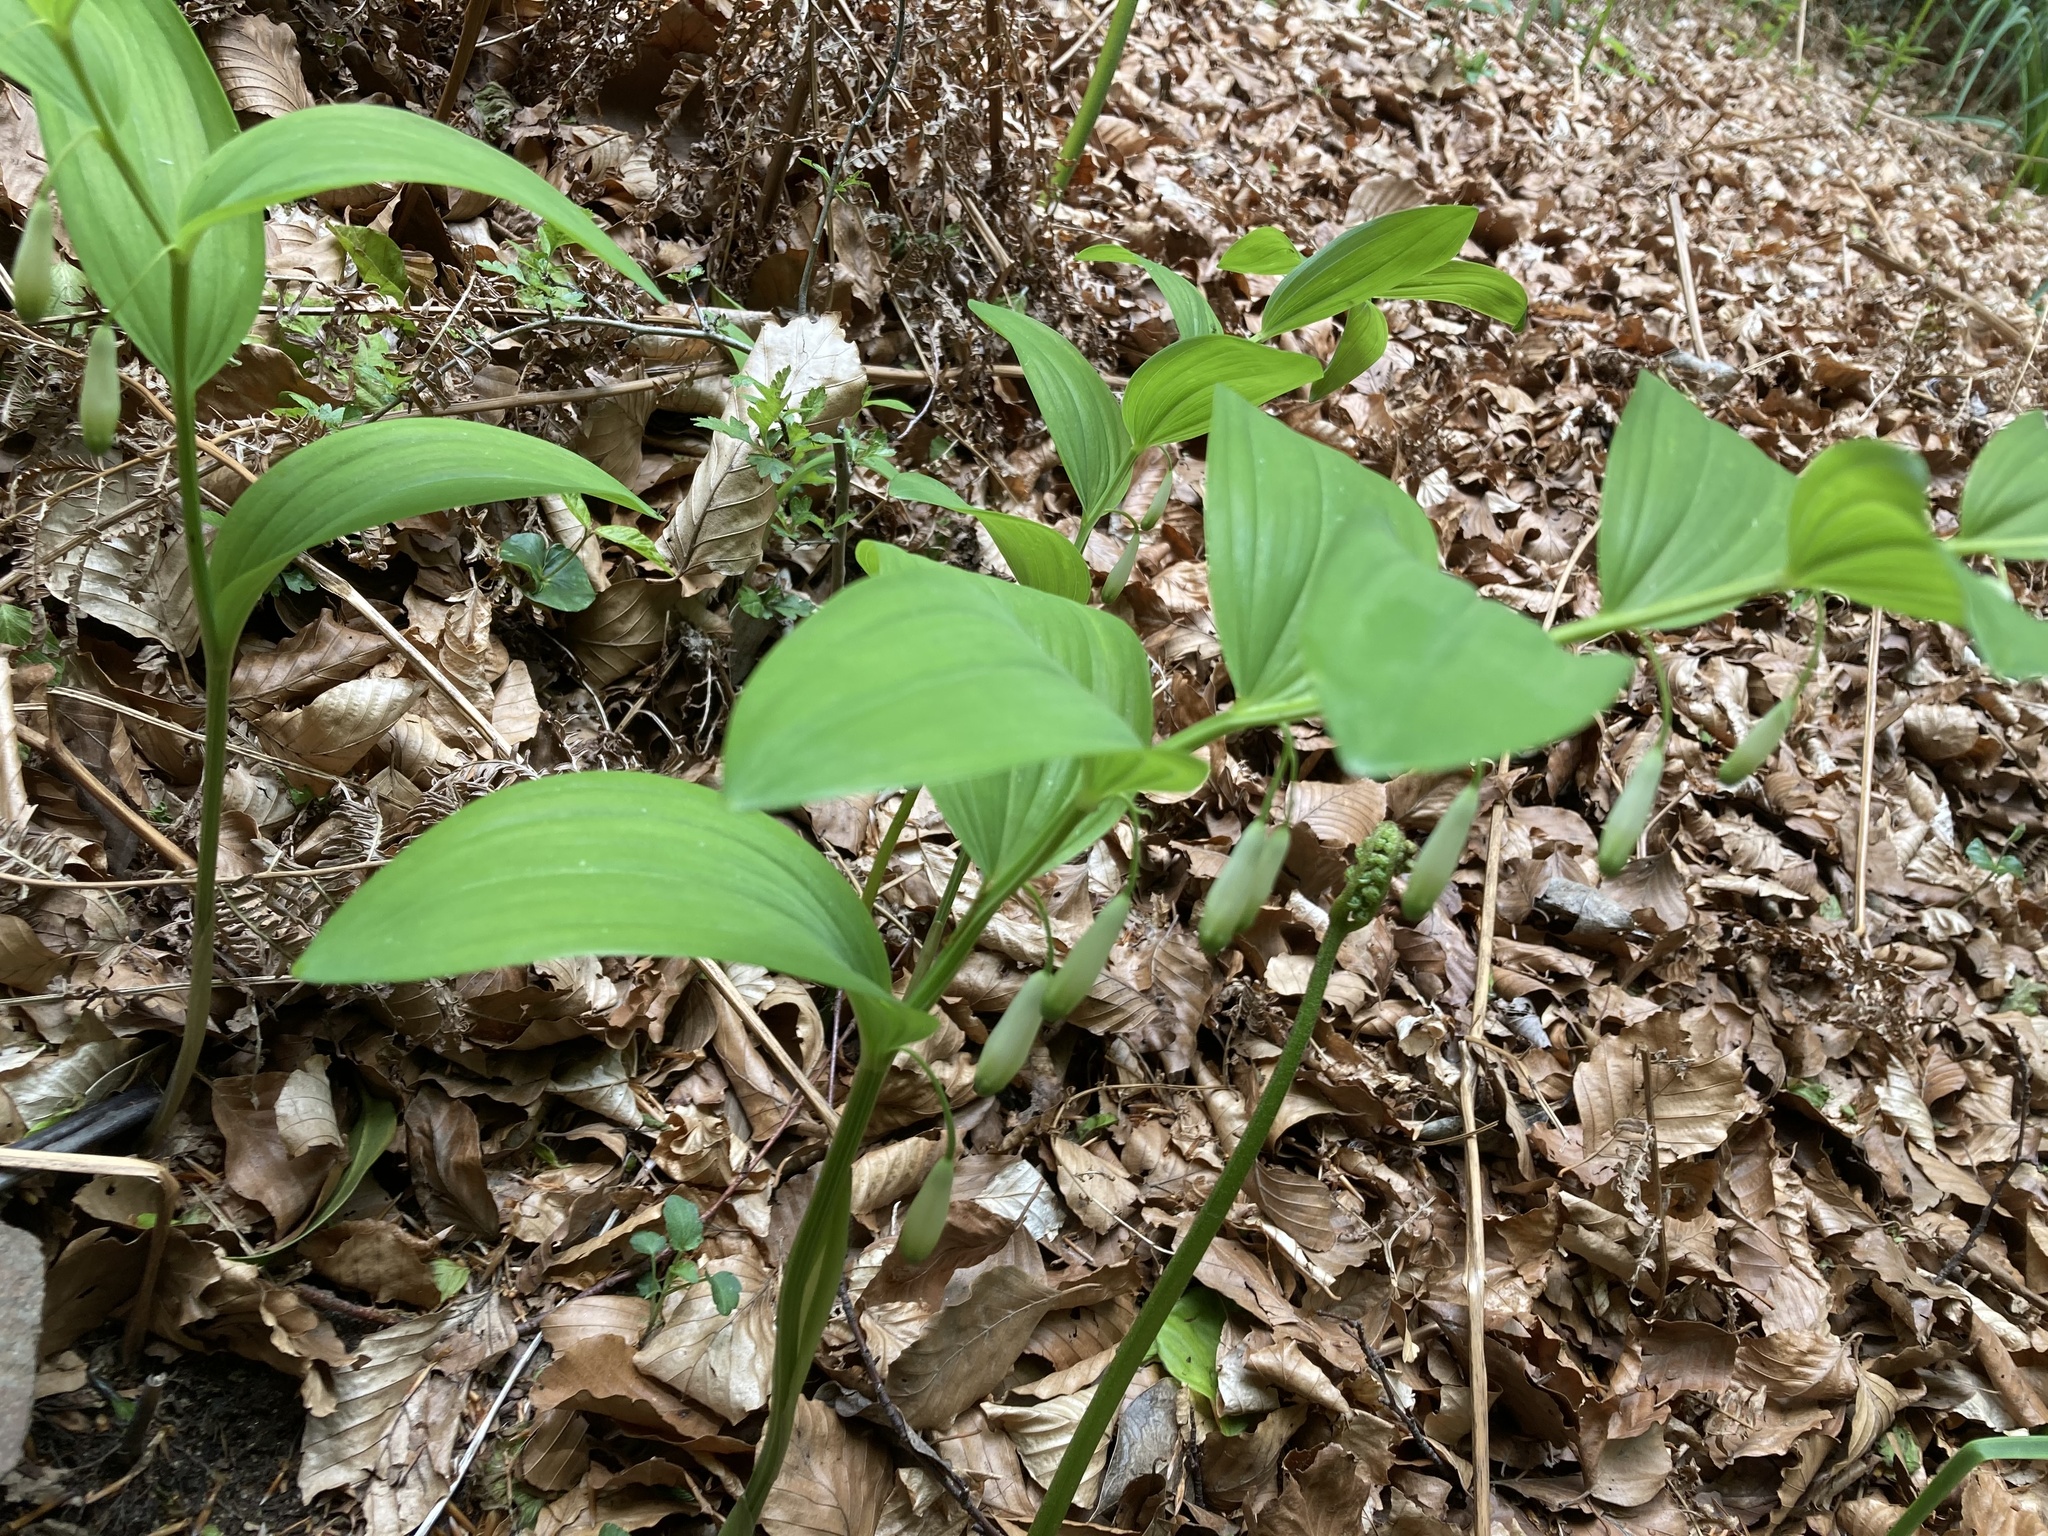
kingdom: Plantae
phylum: Tracheophyta
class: Liliopsida
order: Asparagales
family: Asparagaceae
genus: Polygonatum
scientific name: Polygonatum odoratum
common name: Angular solomon's-seal
